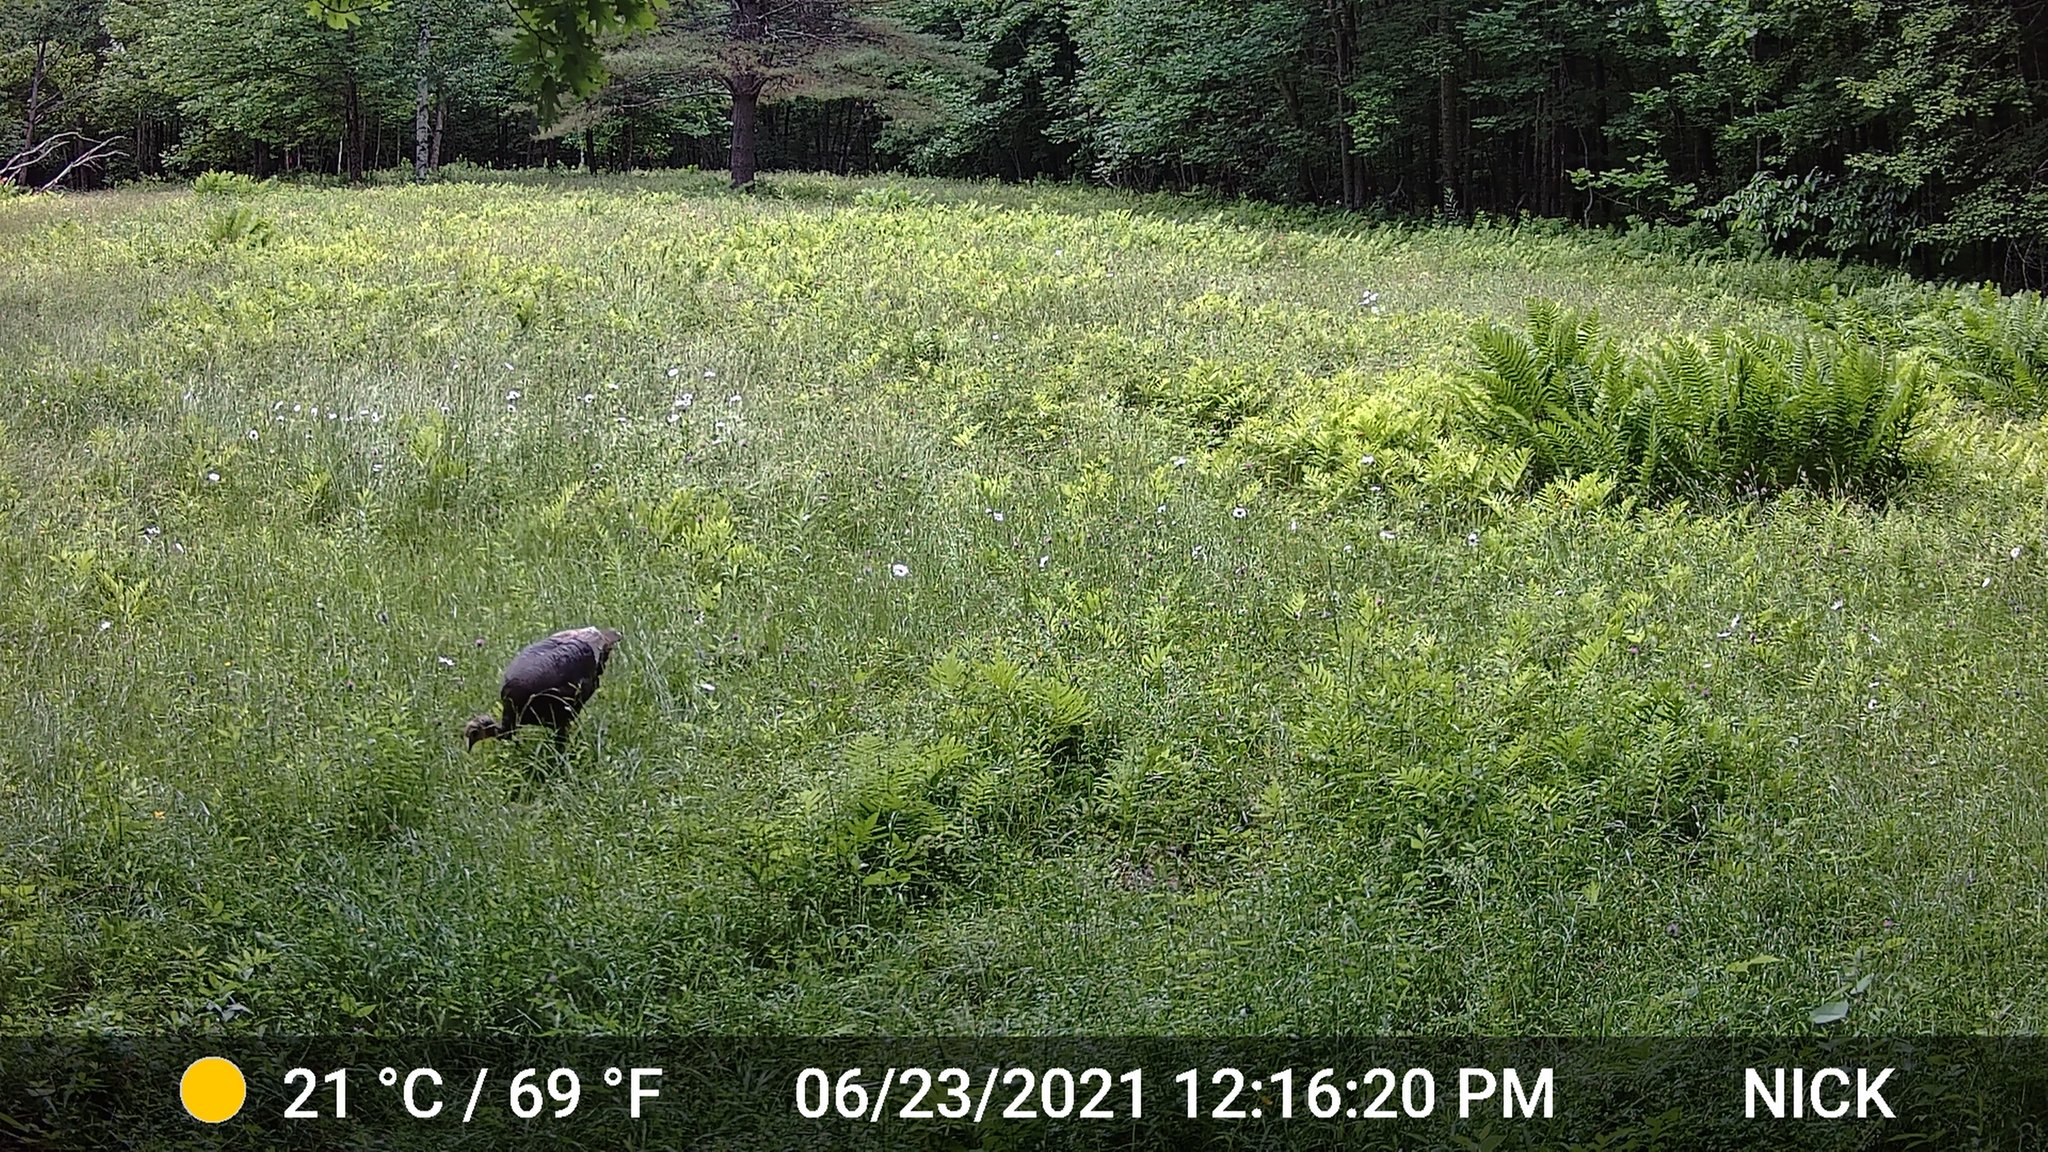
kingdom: Animalia
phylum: Chordata
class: Aves
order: Galliformes
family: Phasianidae
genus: Meleagris
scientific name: Meleagris gallopavo
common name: Wild turkey
